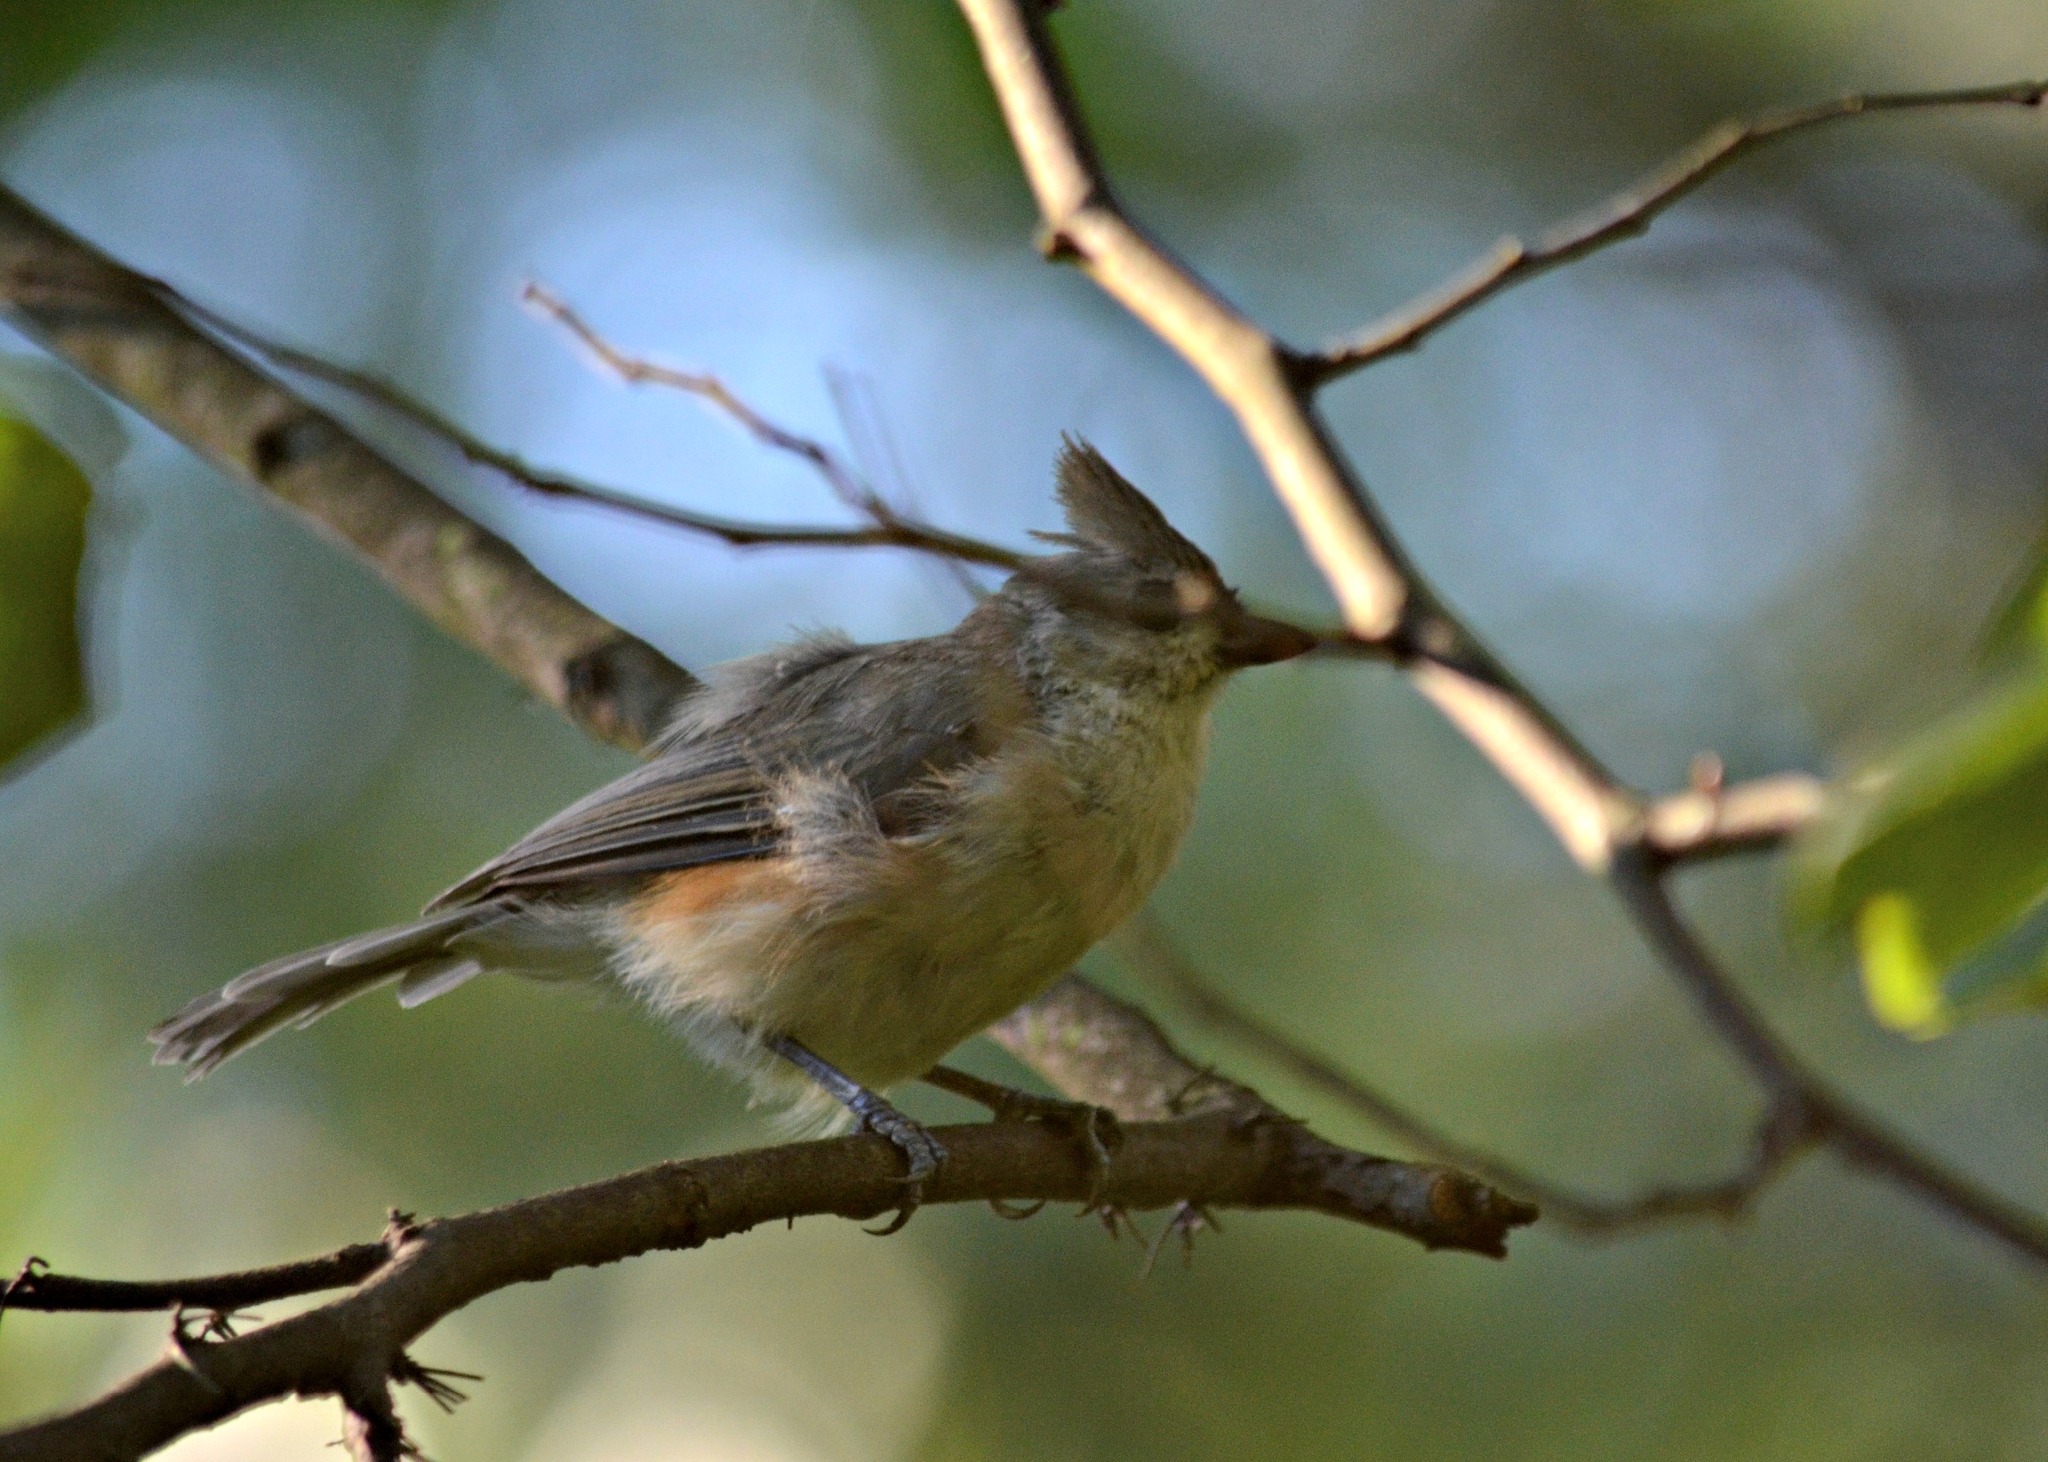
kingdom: Animalia
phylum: Chordata
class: Aves
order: Passeriformes
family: Paridae
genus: Baeolophus
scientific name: Baeolophus bicolor
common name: Tufted titmouse
